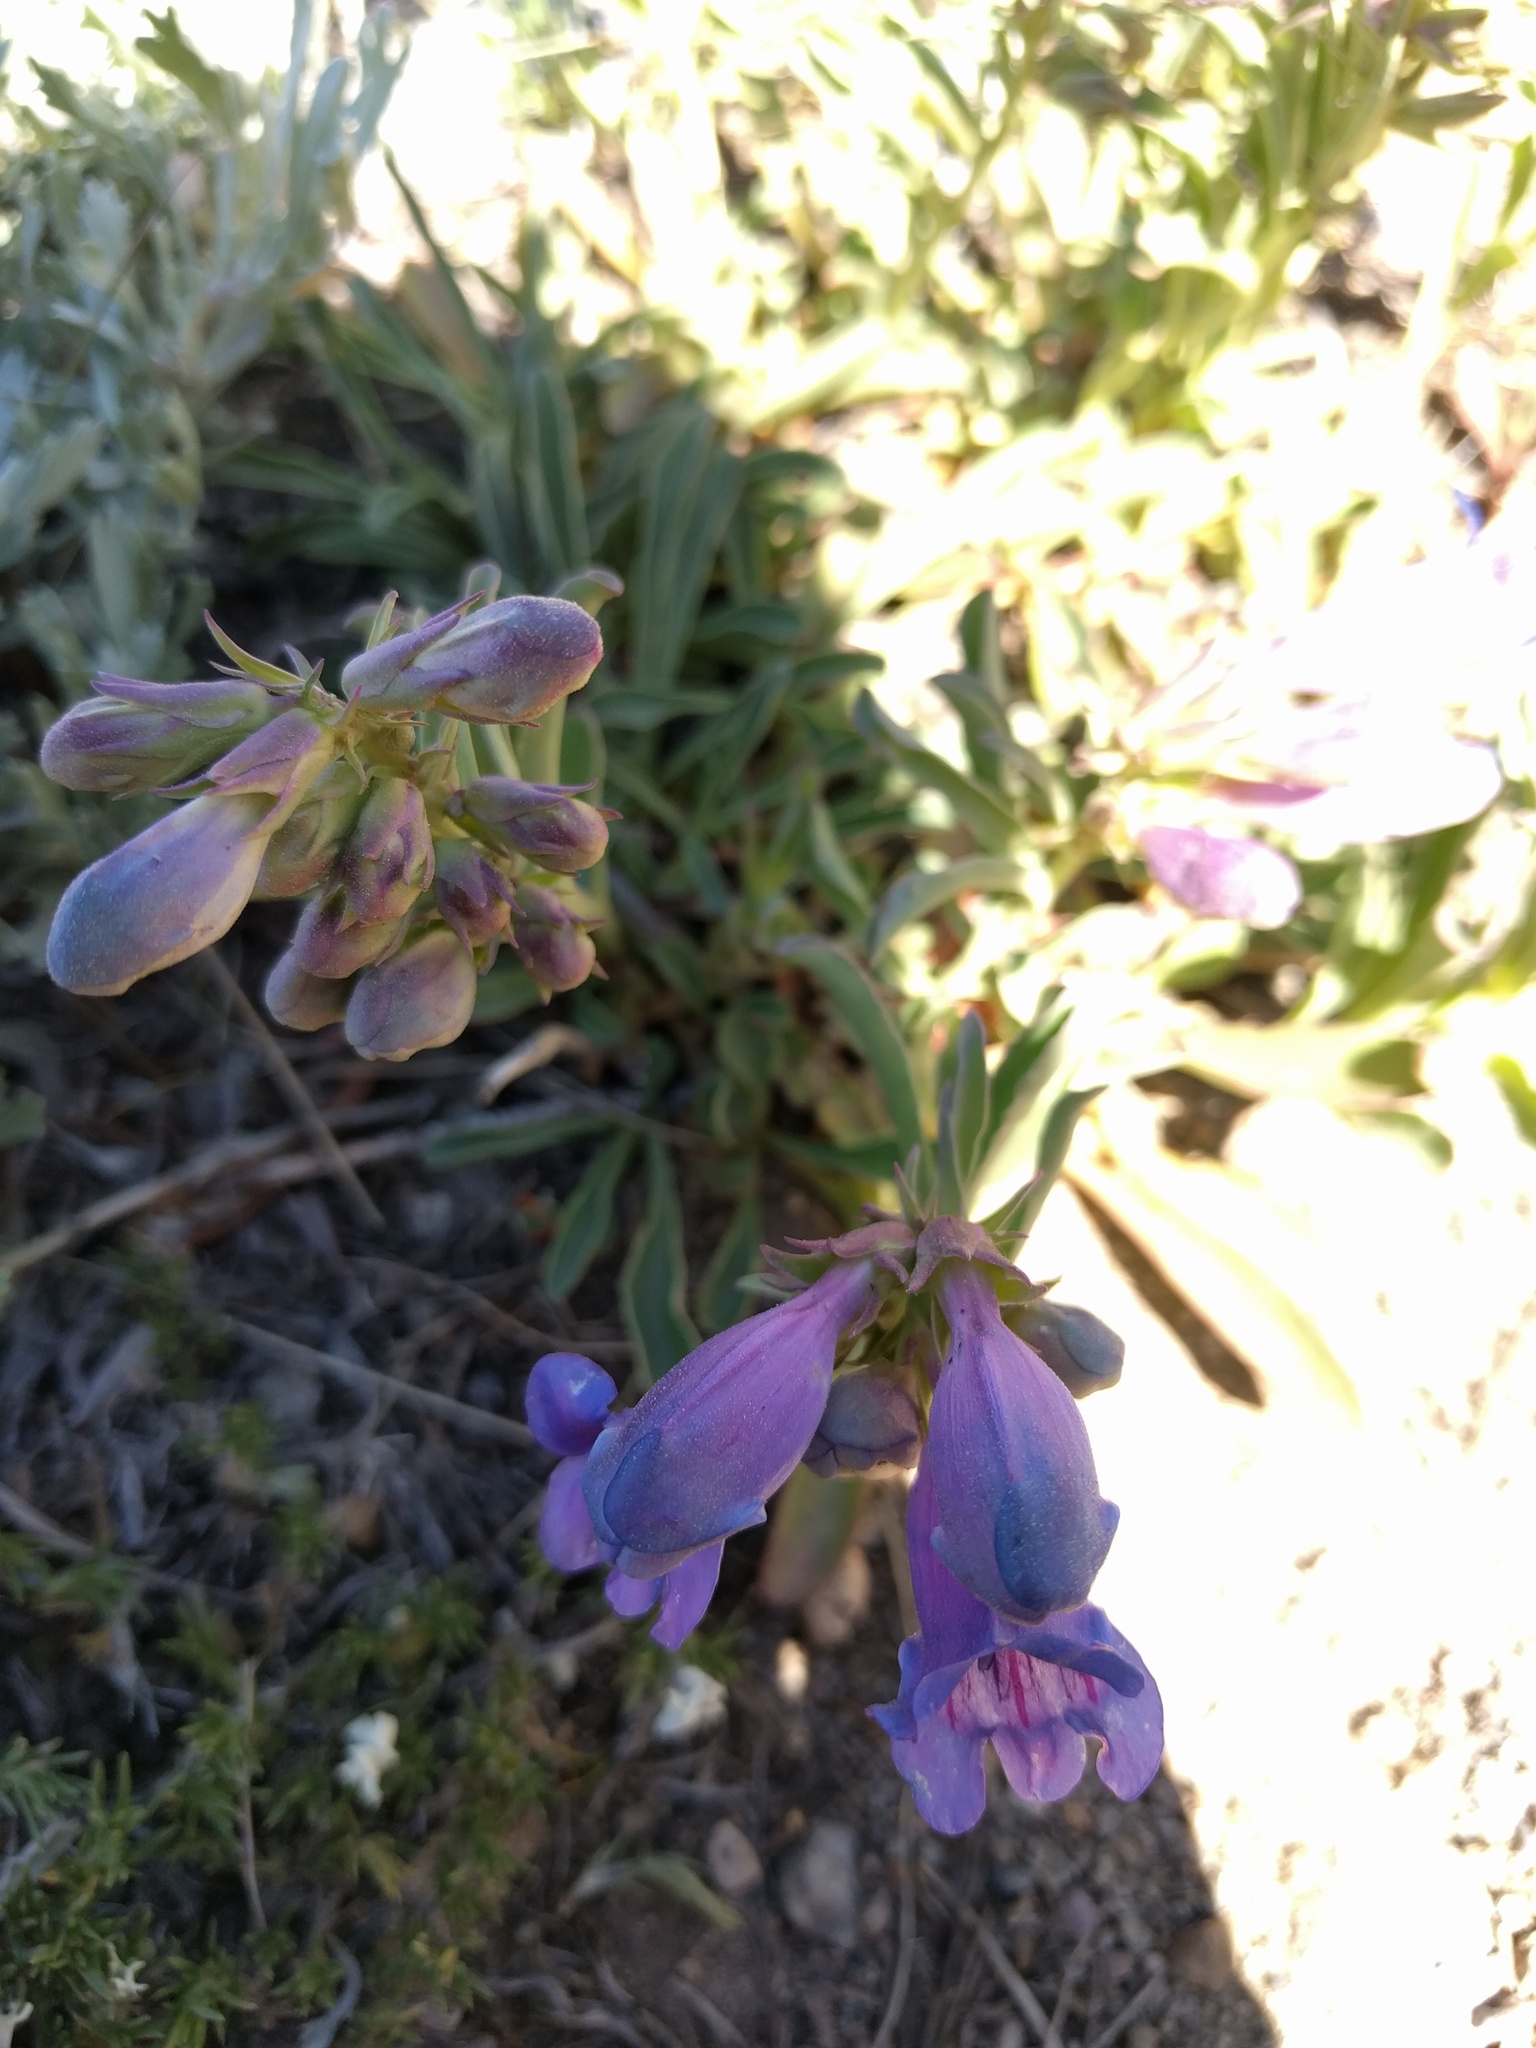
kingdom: Plantae
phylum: Tracheophyta
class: Magnoliopsida
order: Lamiales
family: Plantaginaceae
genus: Penstemon
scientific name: Penstemon speciosus
